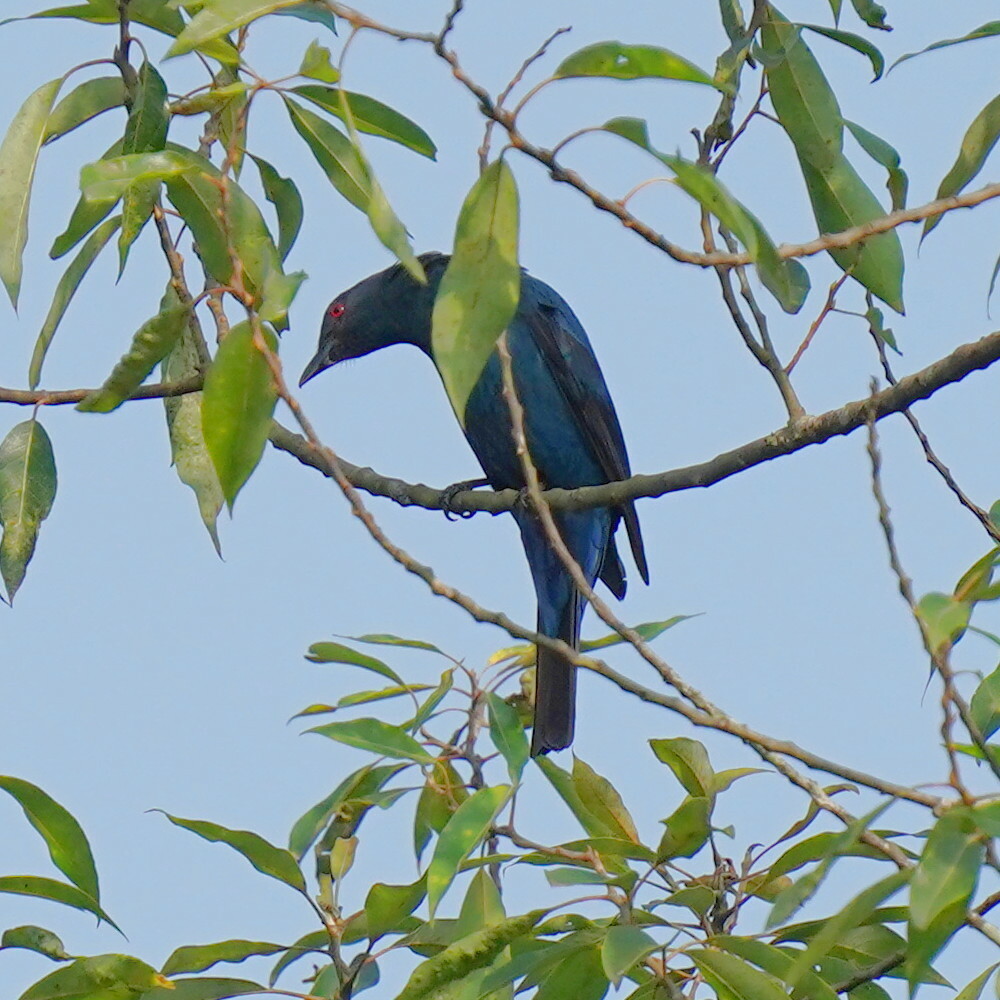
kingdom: Animalia
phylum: Chordata
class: Aves
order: Passeriformes
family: Irenidae
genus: Irena
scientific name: Irena puella
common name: Asian fairy-bluebird
